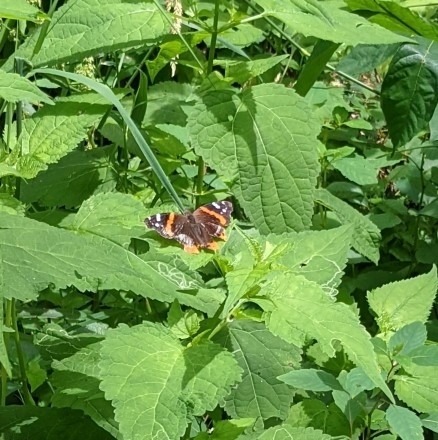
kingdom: Animalia
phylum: Arthropoda
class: Insecta
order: Lepidoptera
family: Nymphalidae
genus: Vanessa
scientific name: Vanessa atalanta
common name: Red admiral
